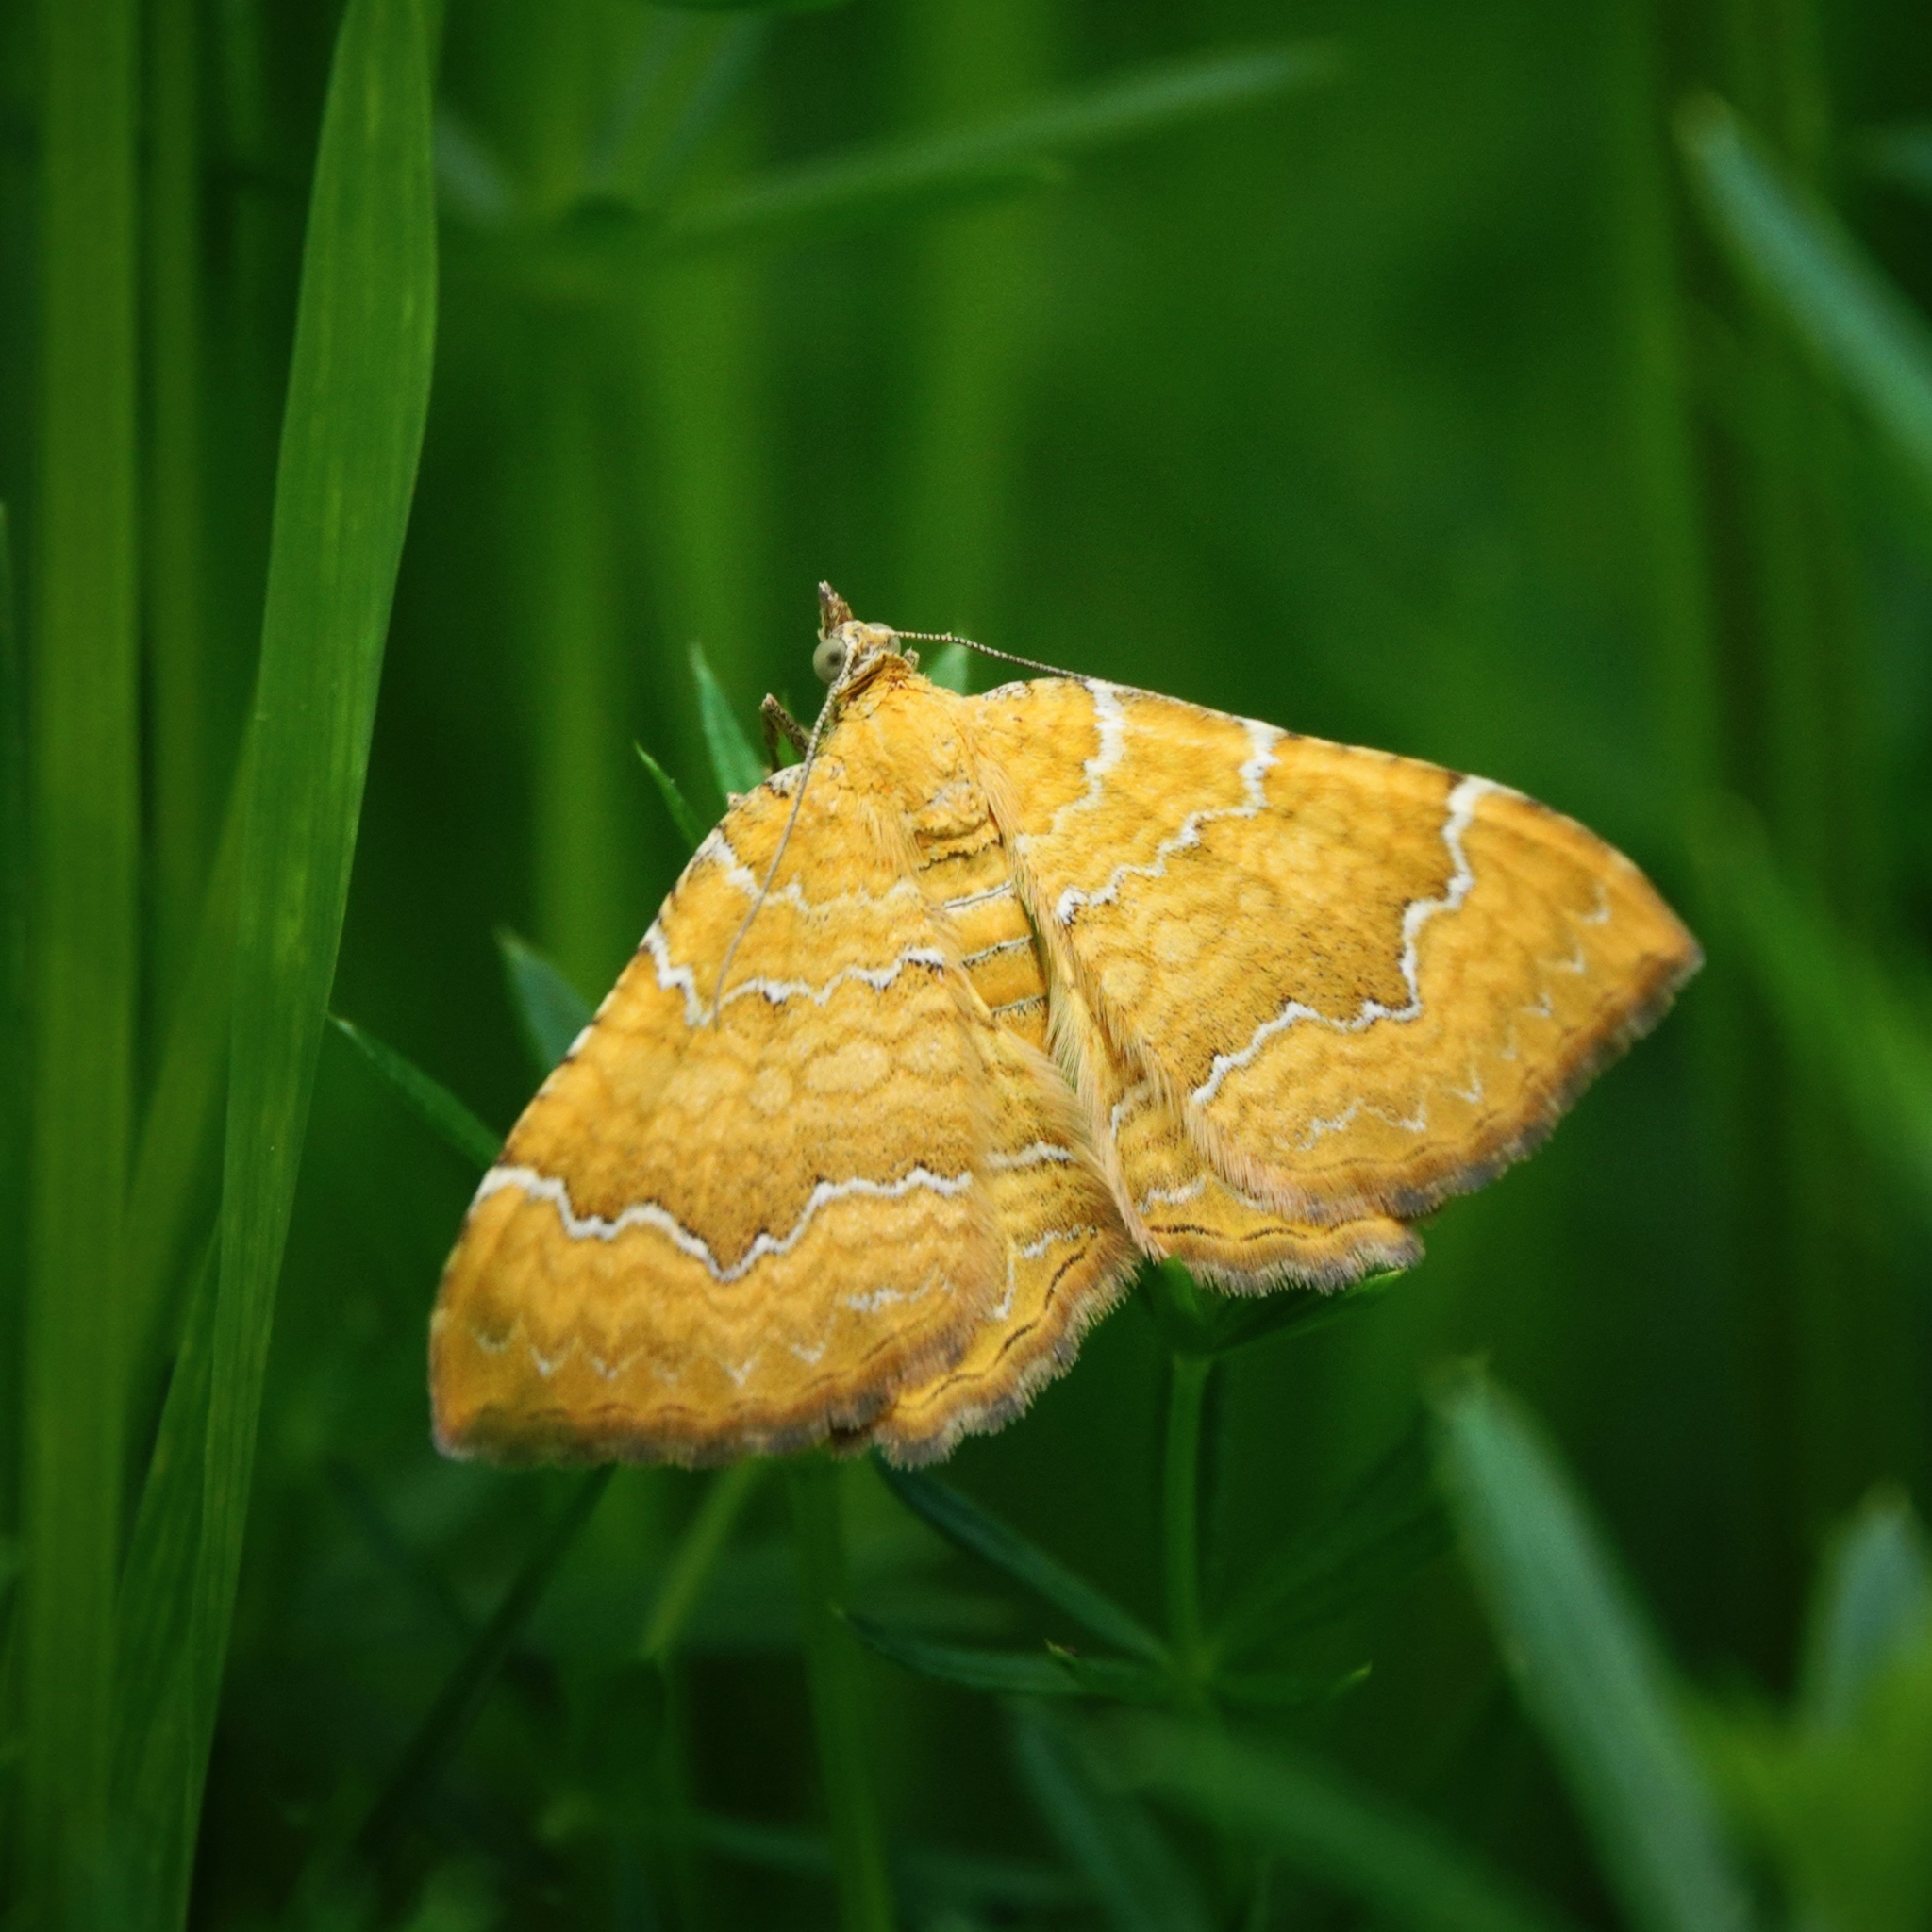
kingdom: Animalia
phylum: Arthropoda
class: Insecta
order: Lepidoptera
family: Geometridae
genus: Camptogramma
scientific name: Camptogramma bilineata
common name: Yellow shell
